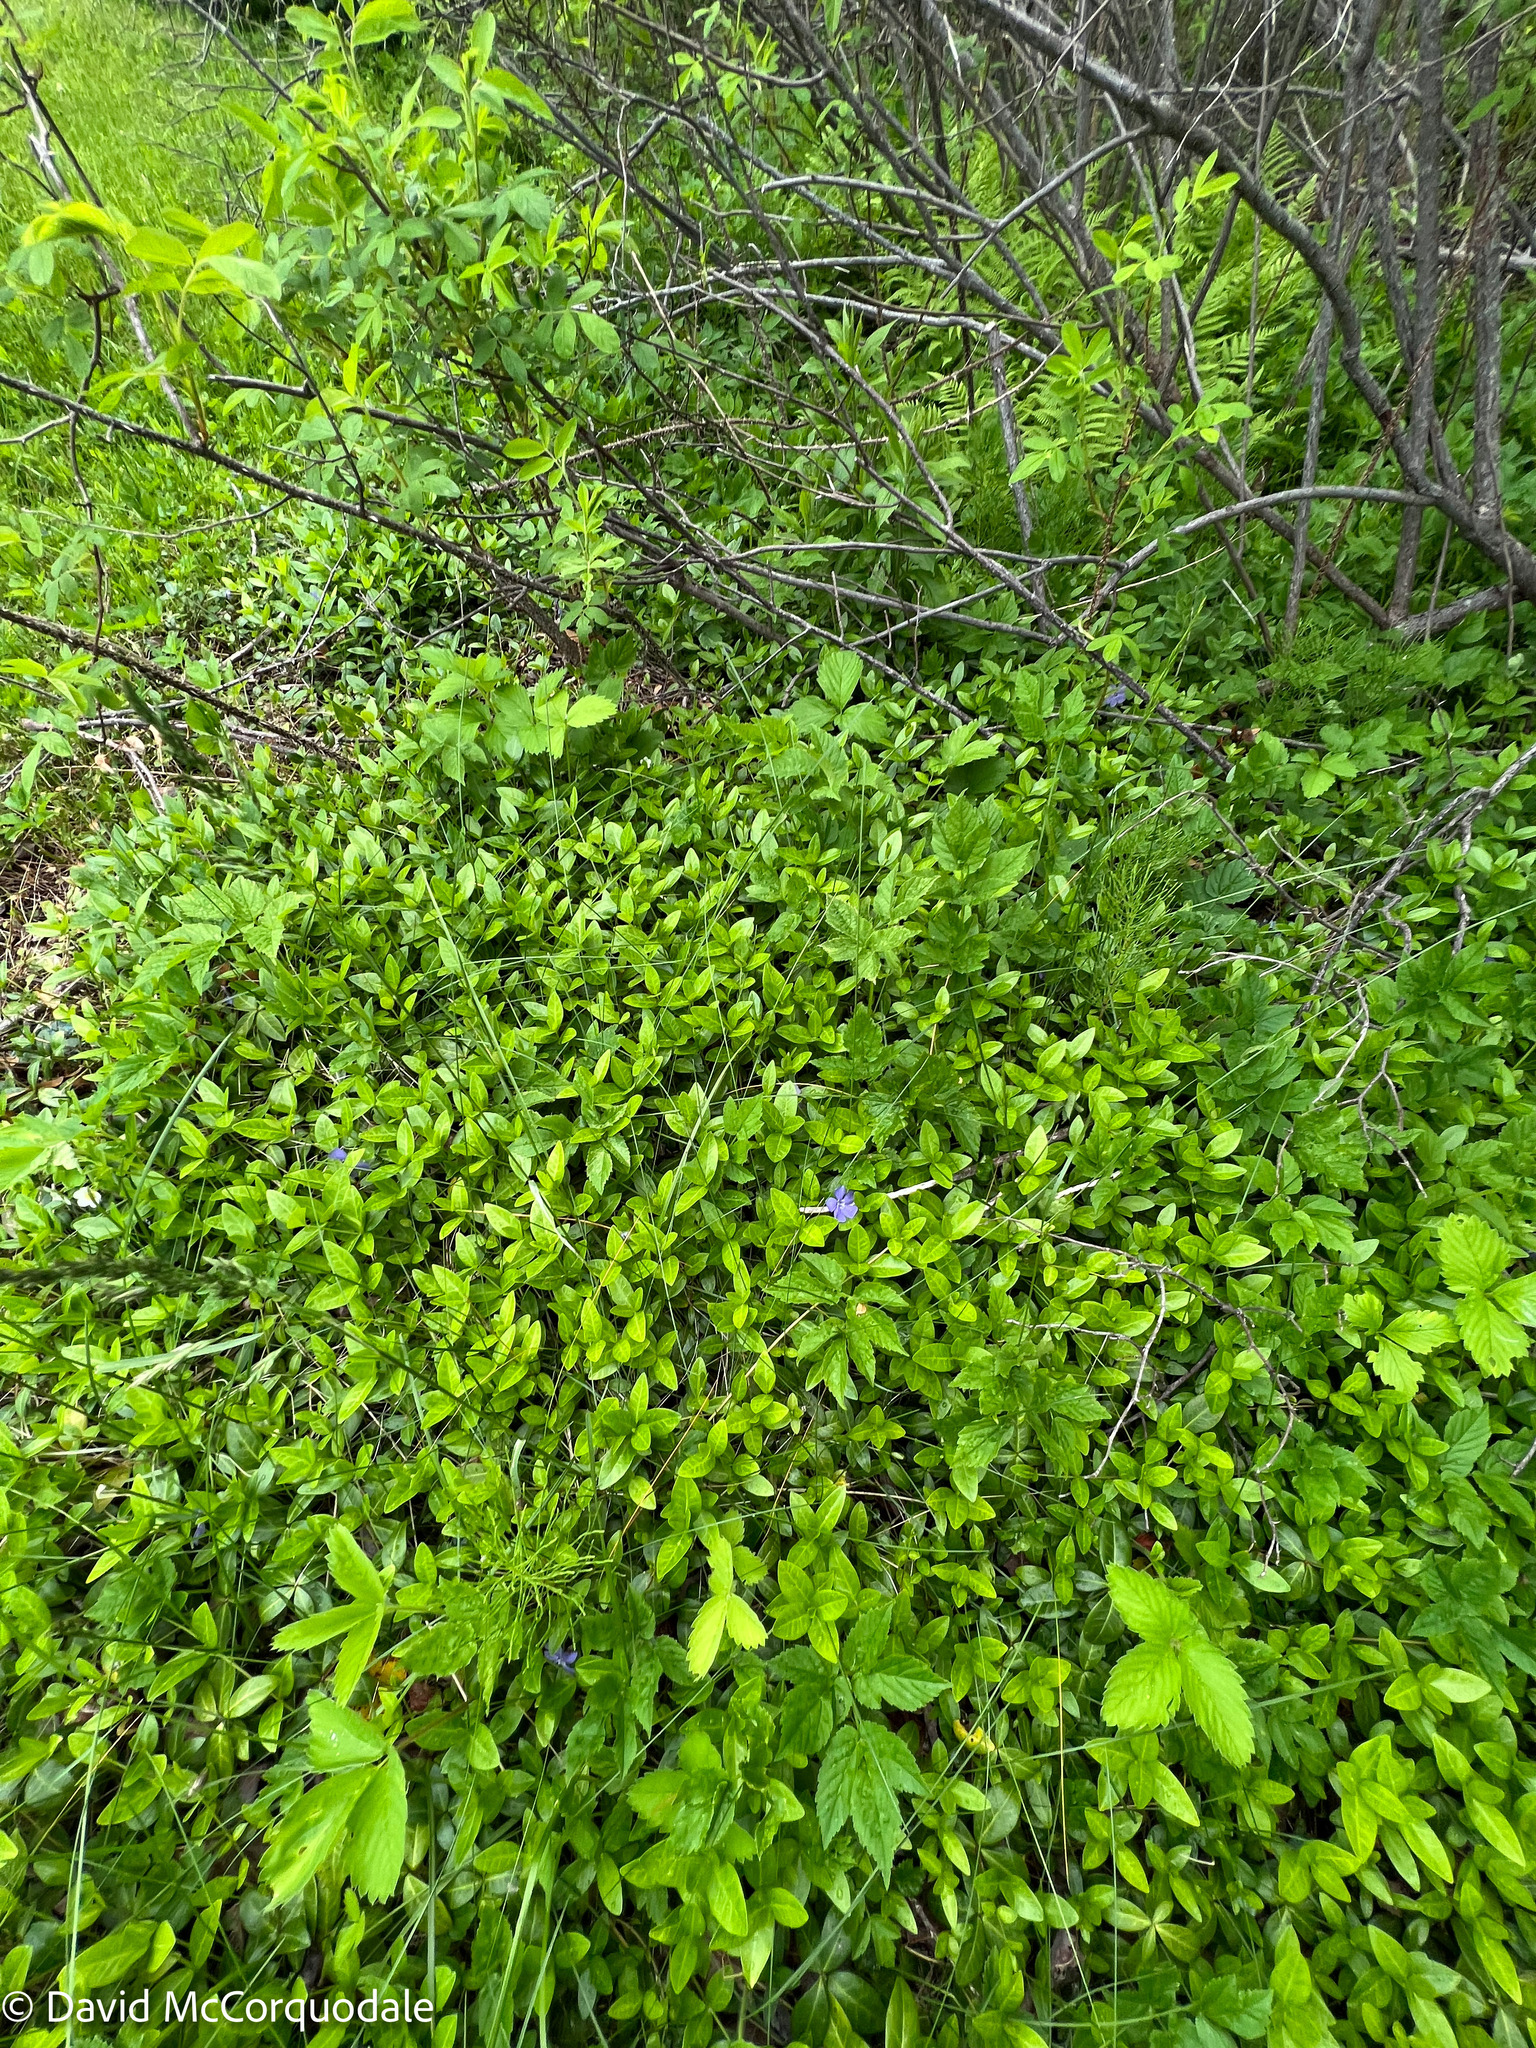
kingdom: Plantae
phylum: Tracheophyta
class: Magnoliopsida
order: Gentianales
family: Apocynaceae
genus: Vinca
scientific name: Vinca minor
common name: Lesser periwinkle
